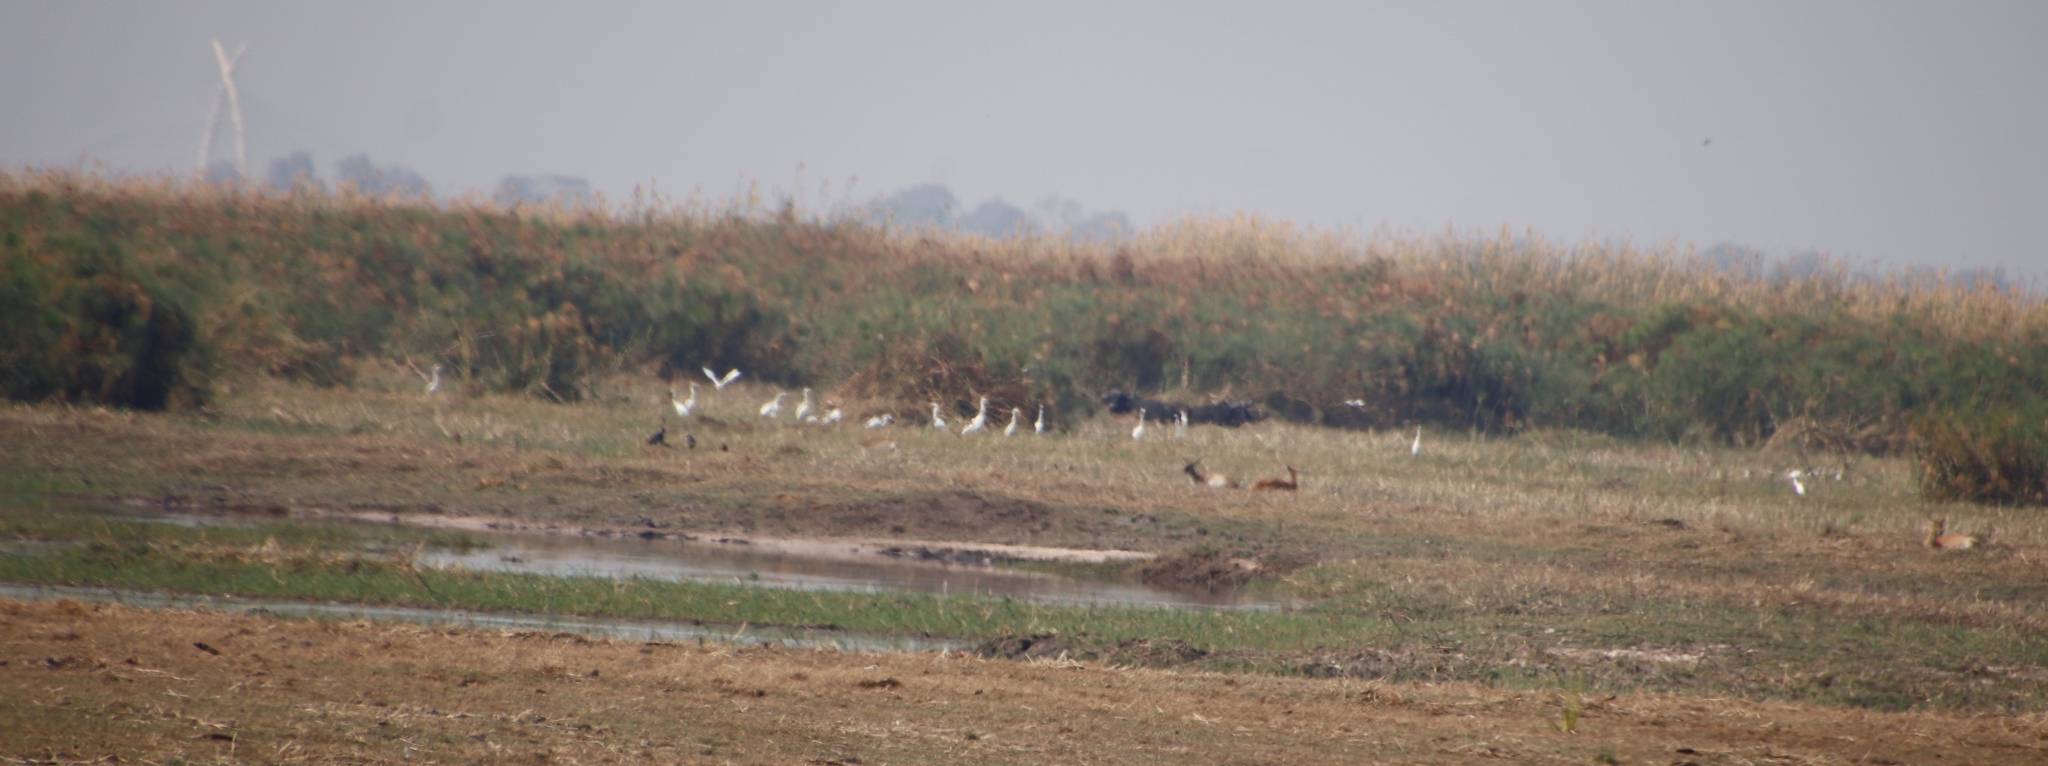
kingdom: Animalia
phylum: Chordata
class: Aves
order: Pelecaniformes
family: Ardeidae
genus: Ardea
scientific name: Ardea alba
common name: Great egret
